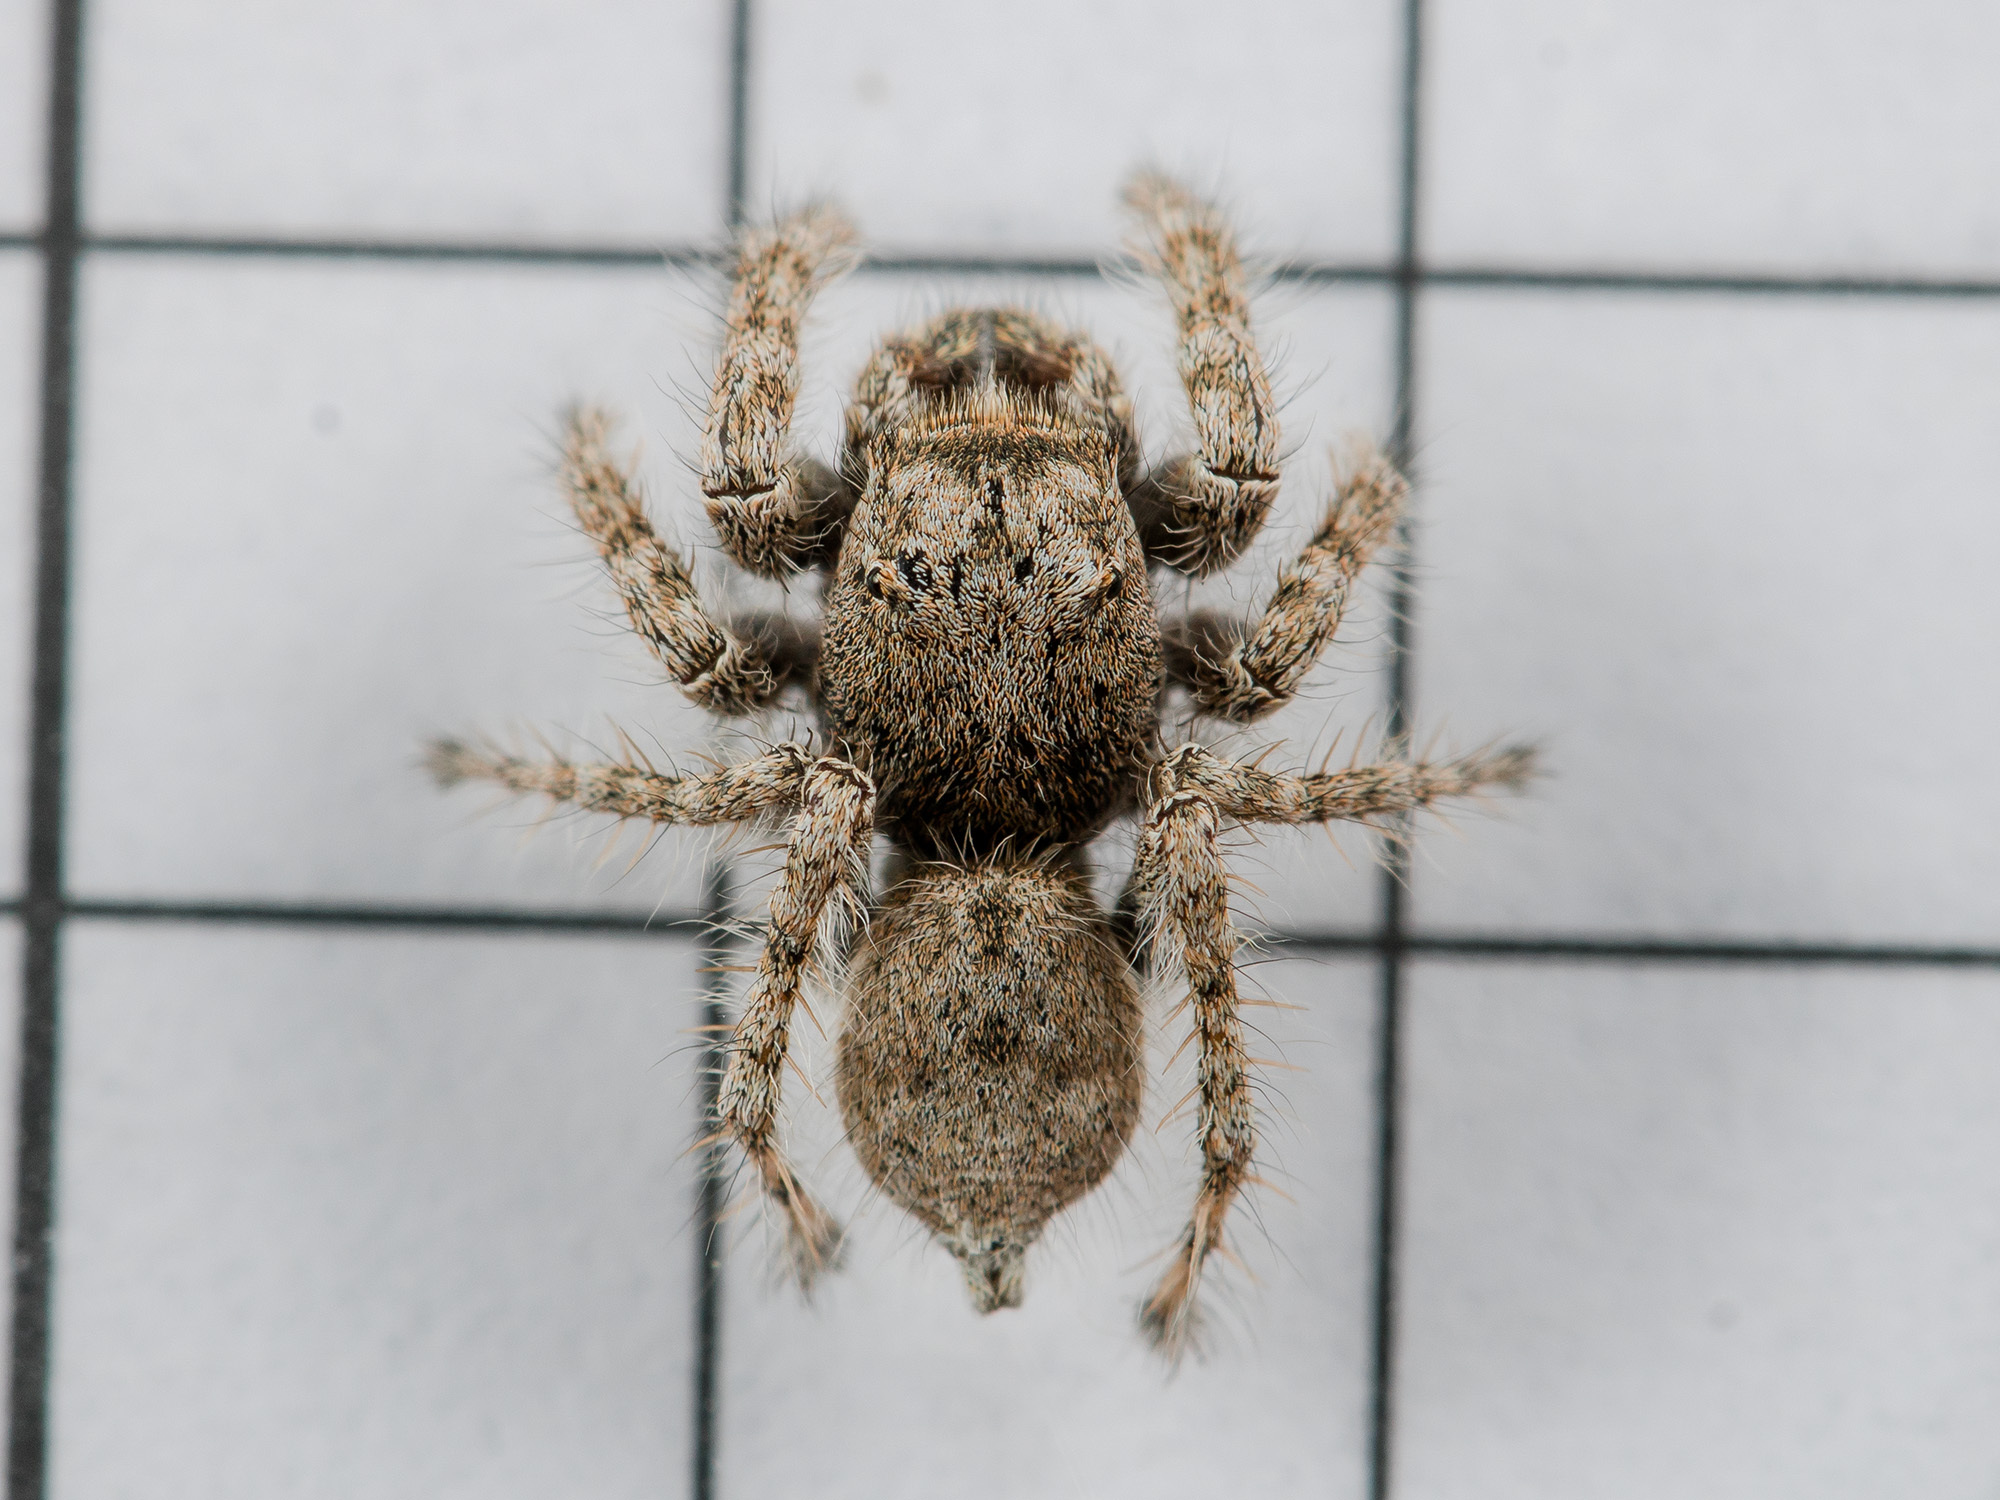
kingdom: Animalia
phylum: Arthropoda
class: Arachnida
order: Araneae
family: Salticidae
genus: Marusyllus
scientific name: Marusyllus coreanus
